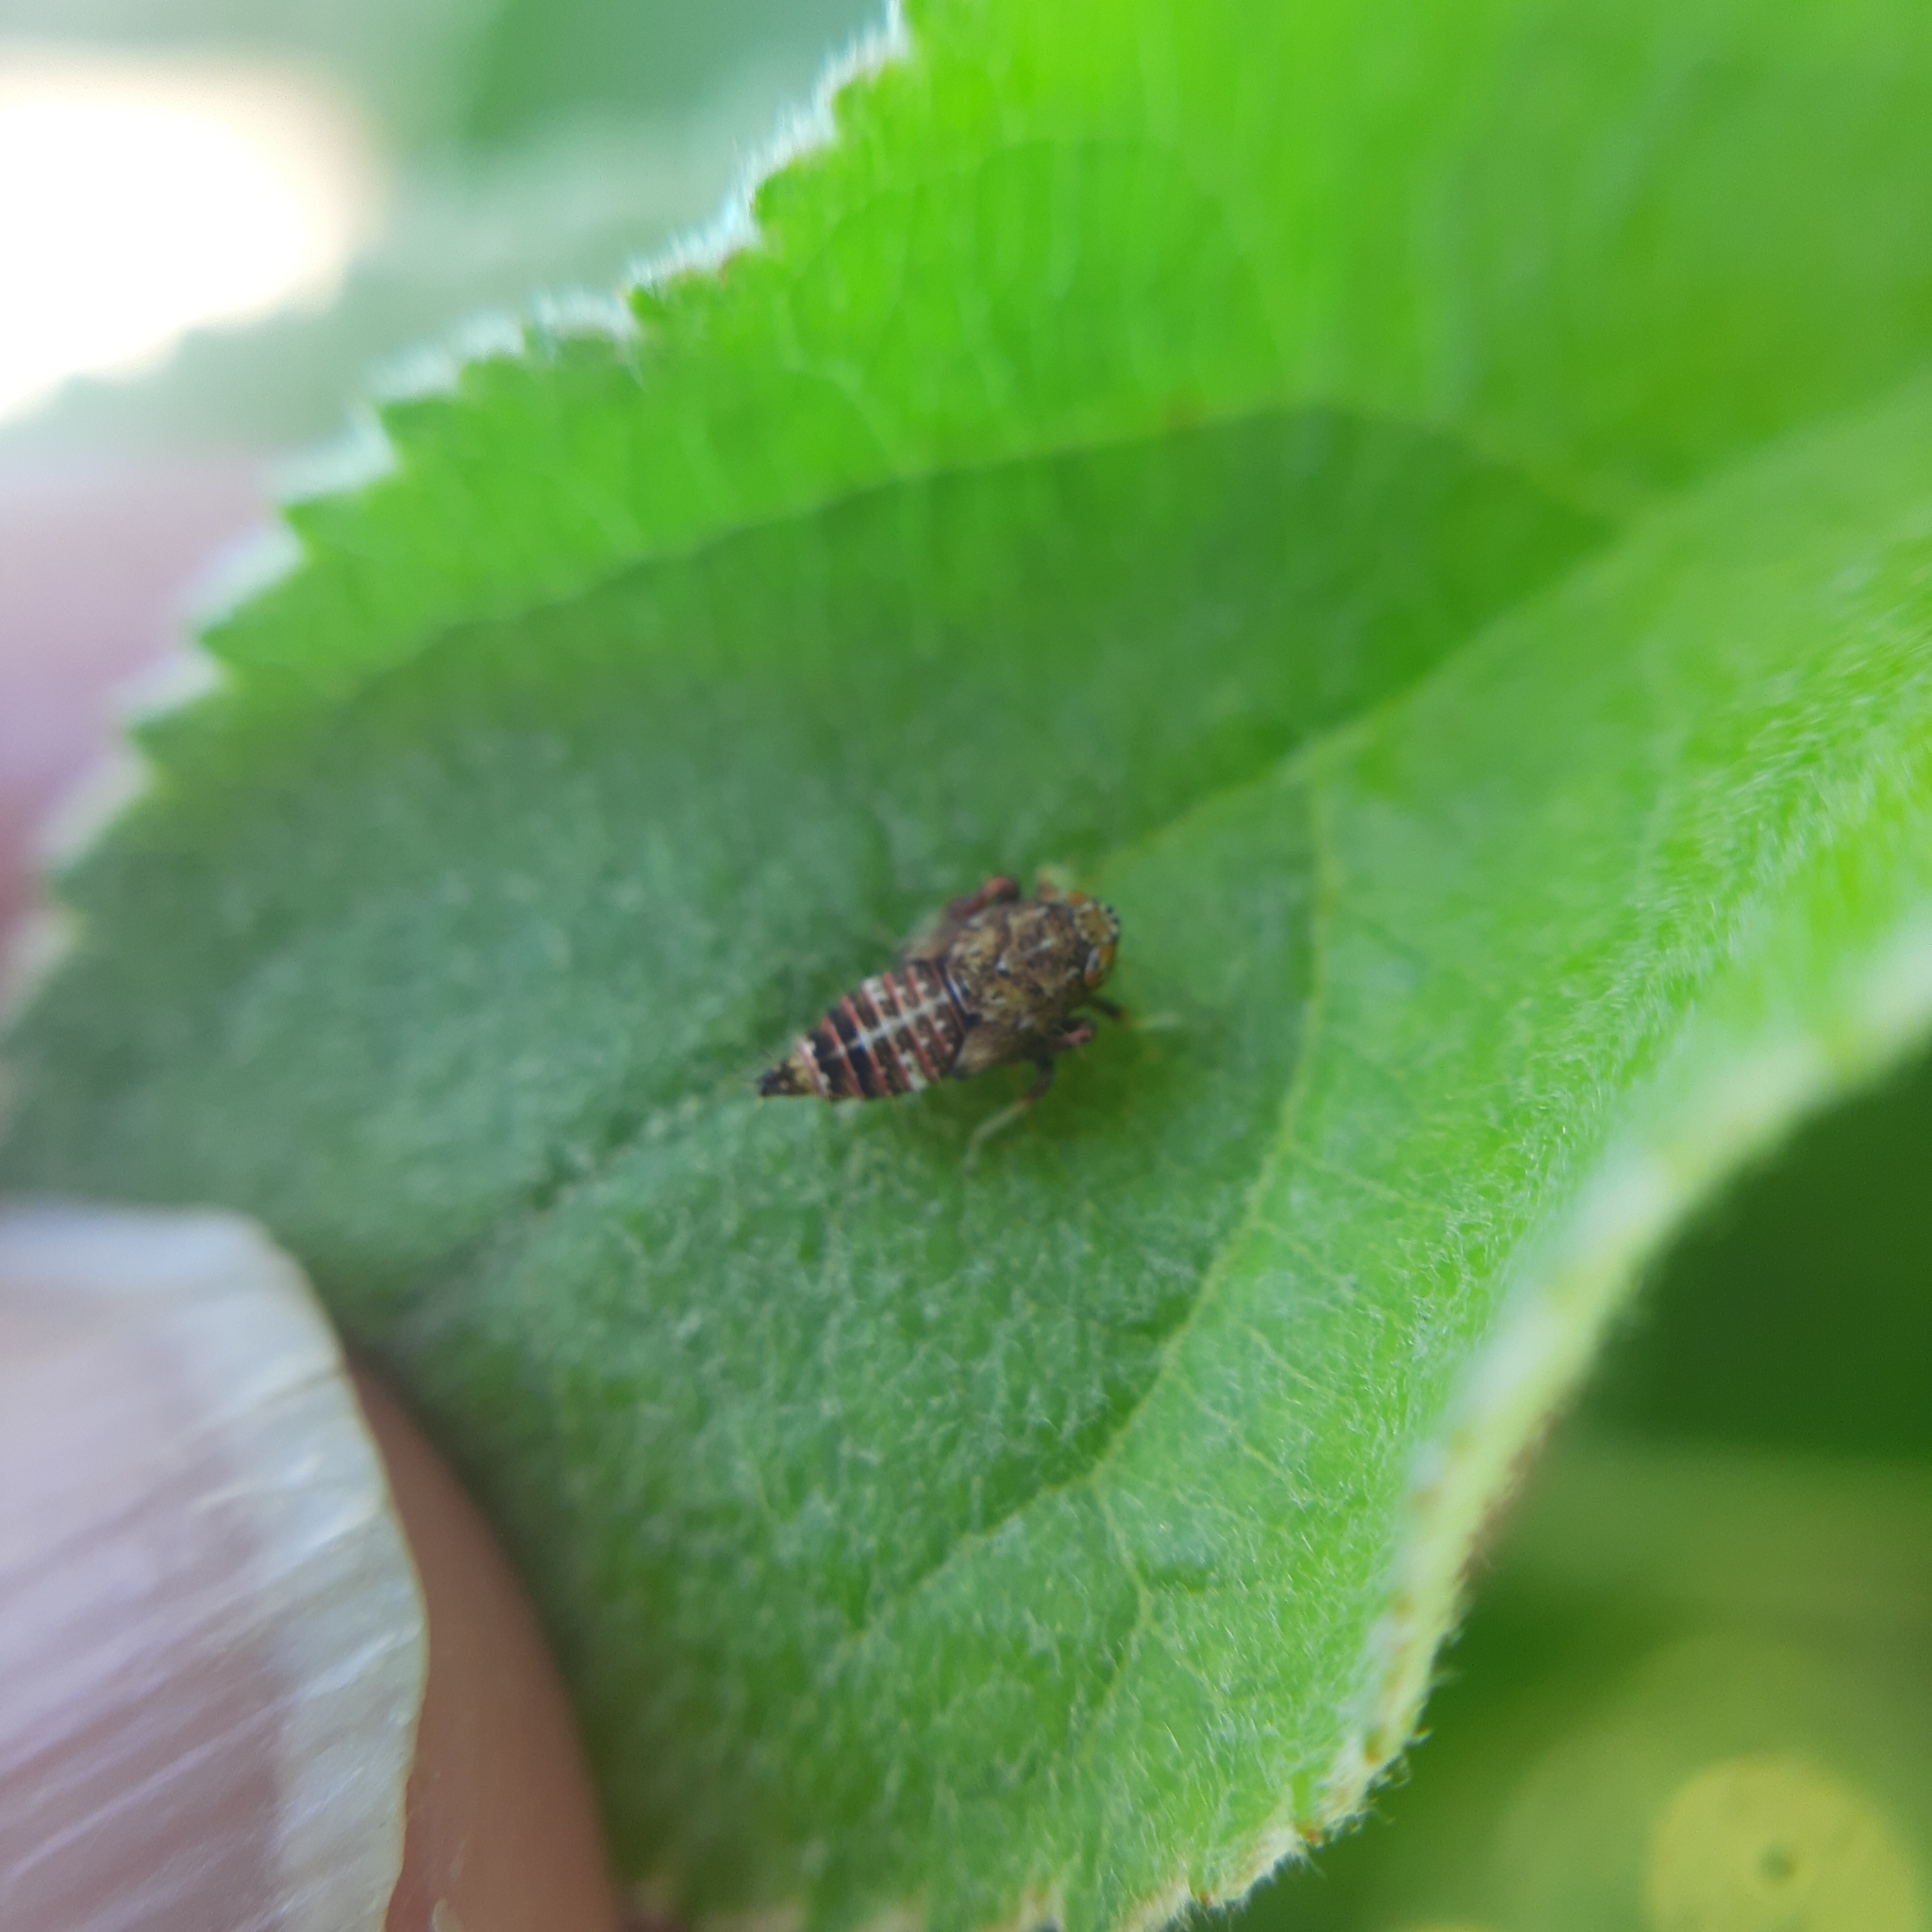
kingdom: Animalia
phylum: Arthropoda
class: Insecta
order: Hemiptera
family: Cicadellidae
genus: Orientus
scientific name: Orientus ishidae
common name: Japanese leafhopper
